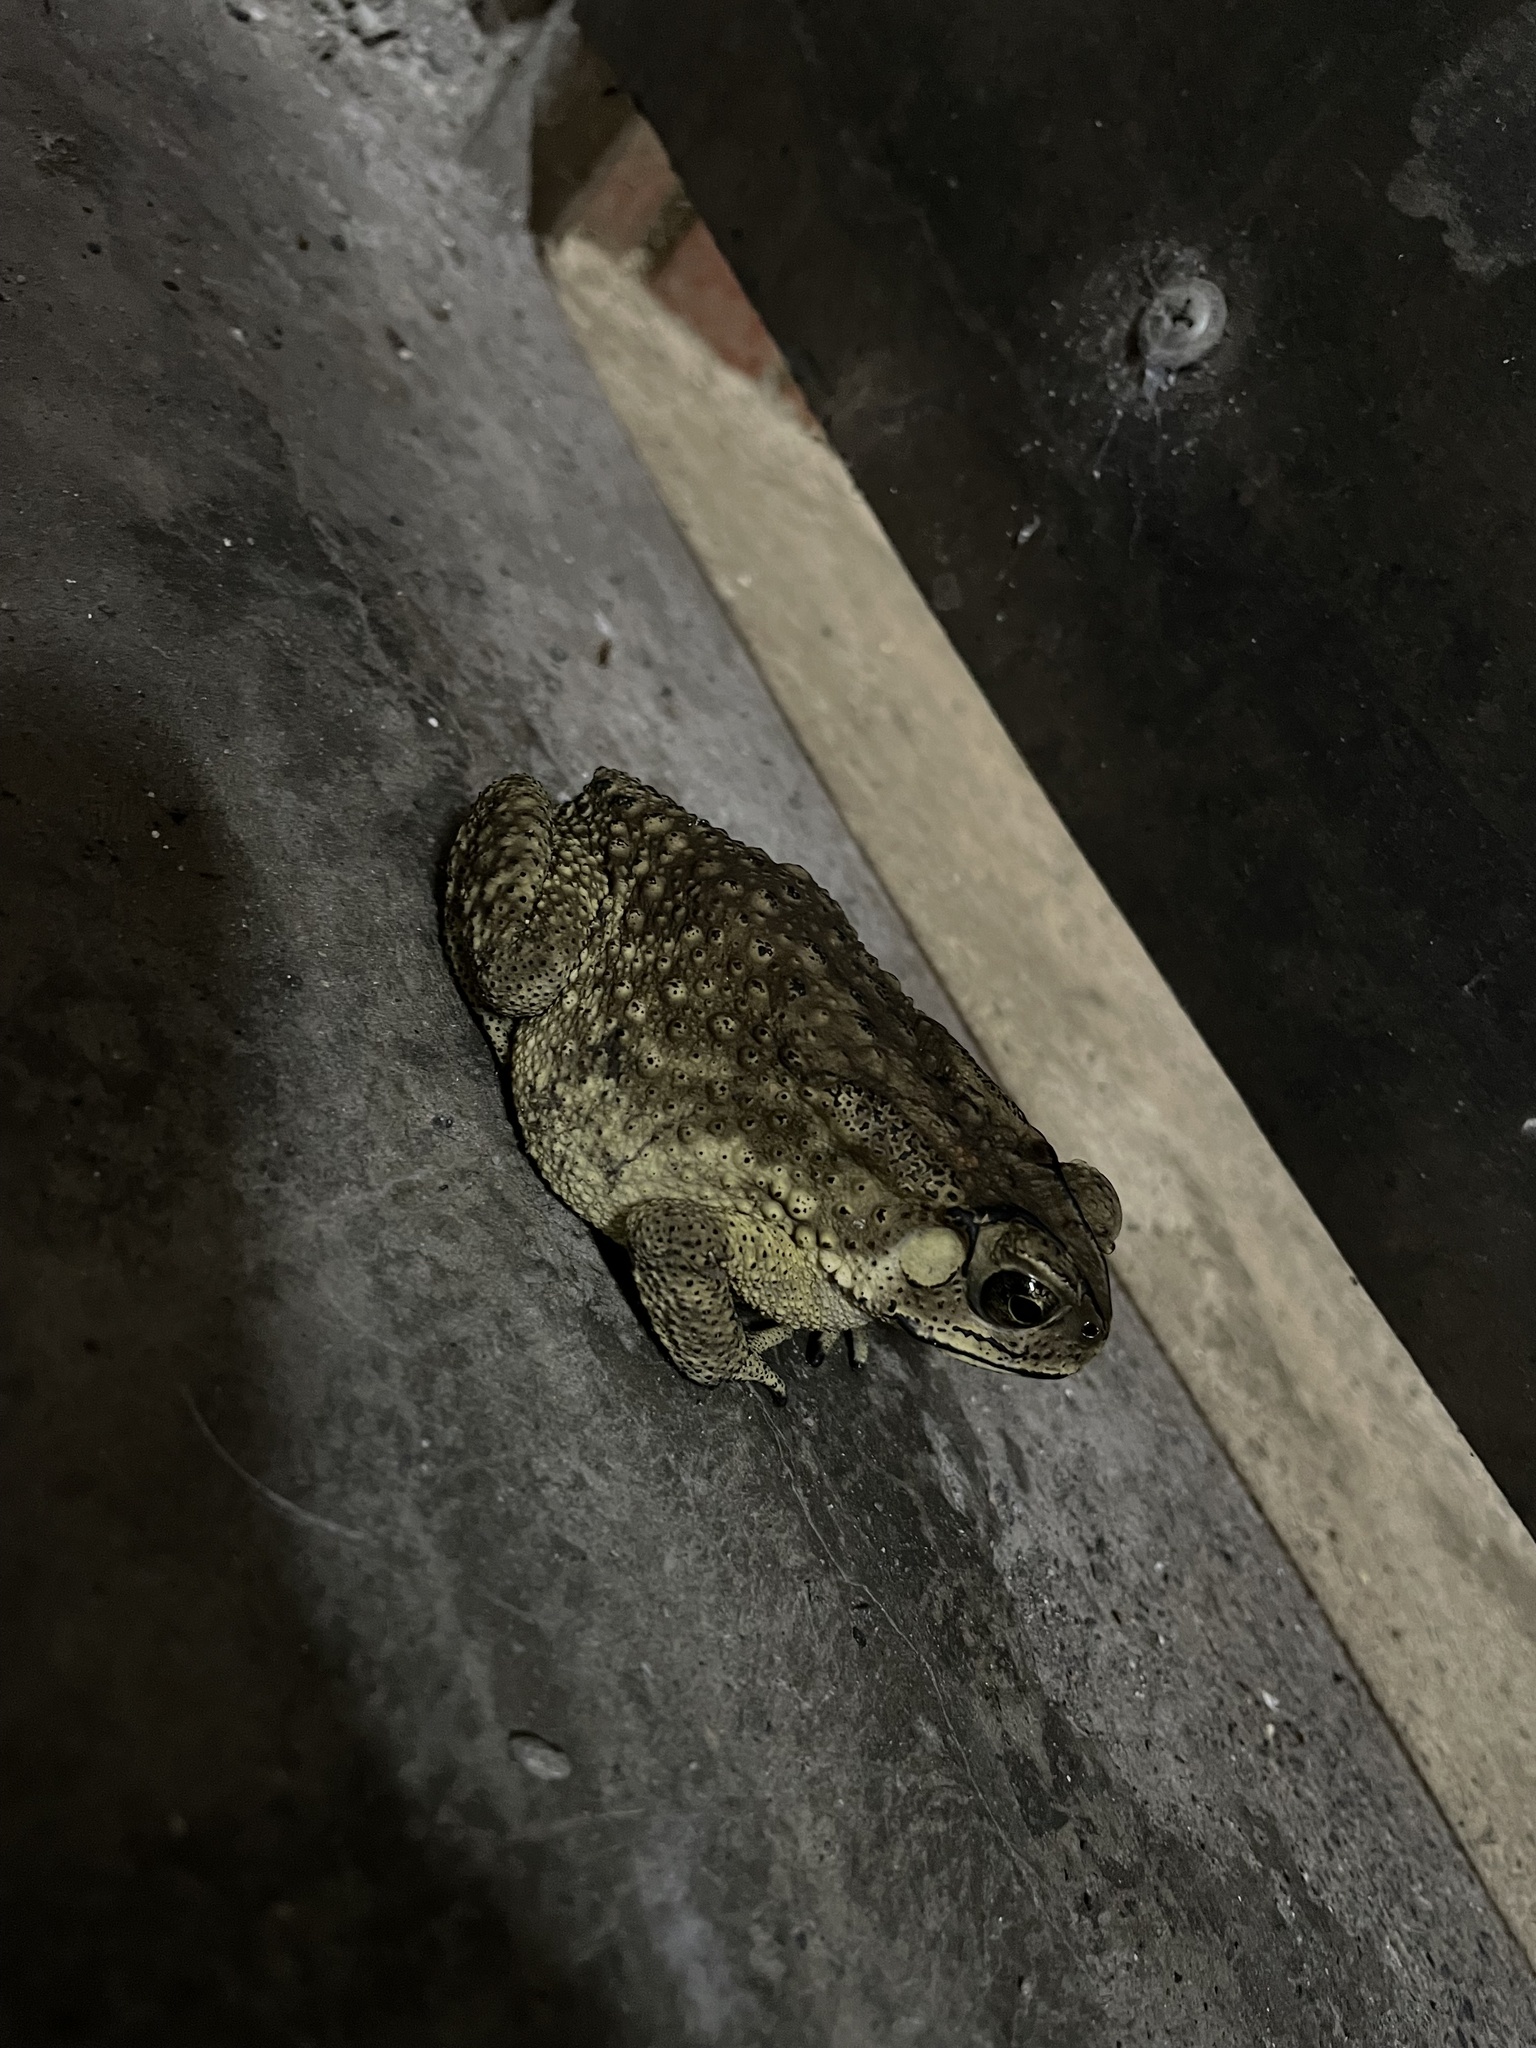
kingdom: Animalia
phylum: Chordata
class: Amphibia
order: Anura
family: Bufonidae
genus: Duttaphrynus
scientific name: Duttaphrynus melanostictus
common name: Common sunda toad
